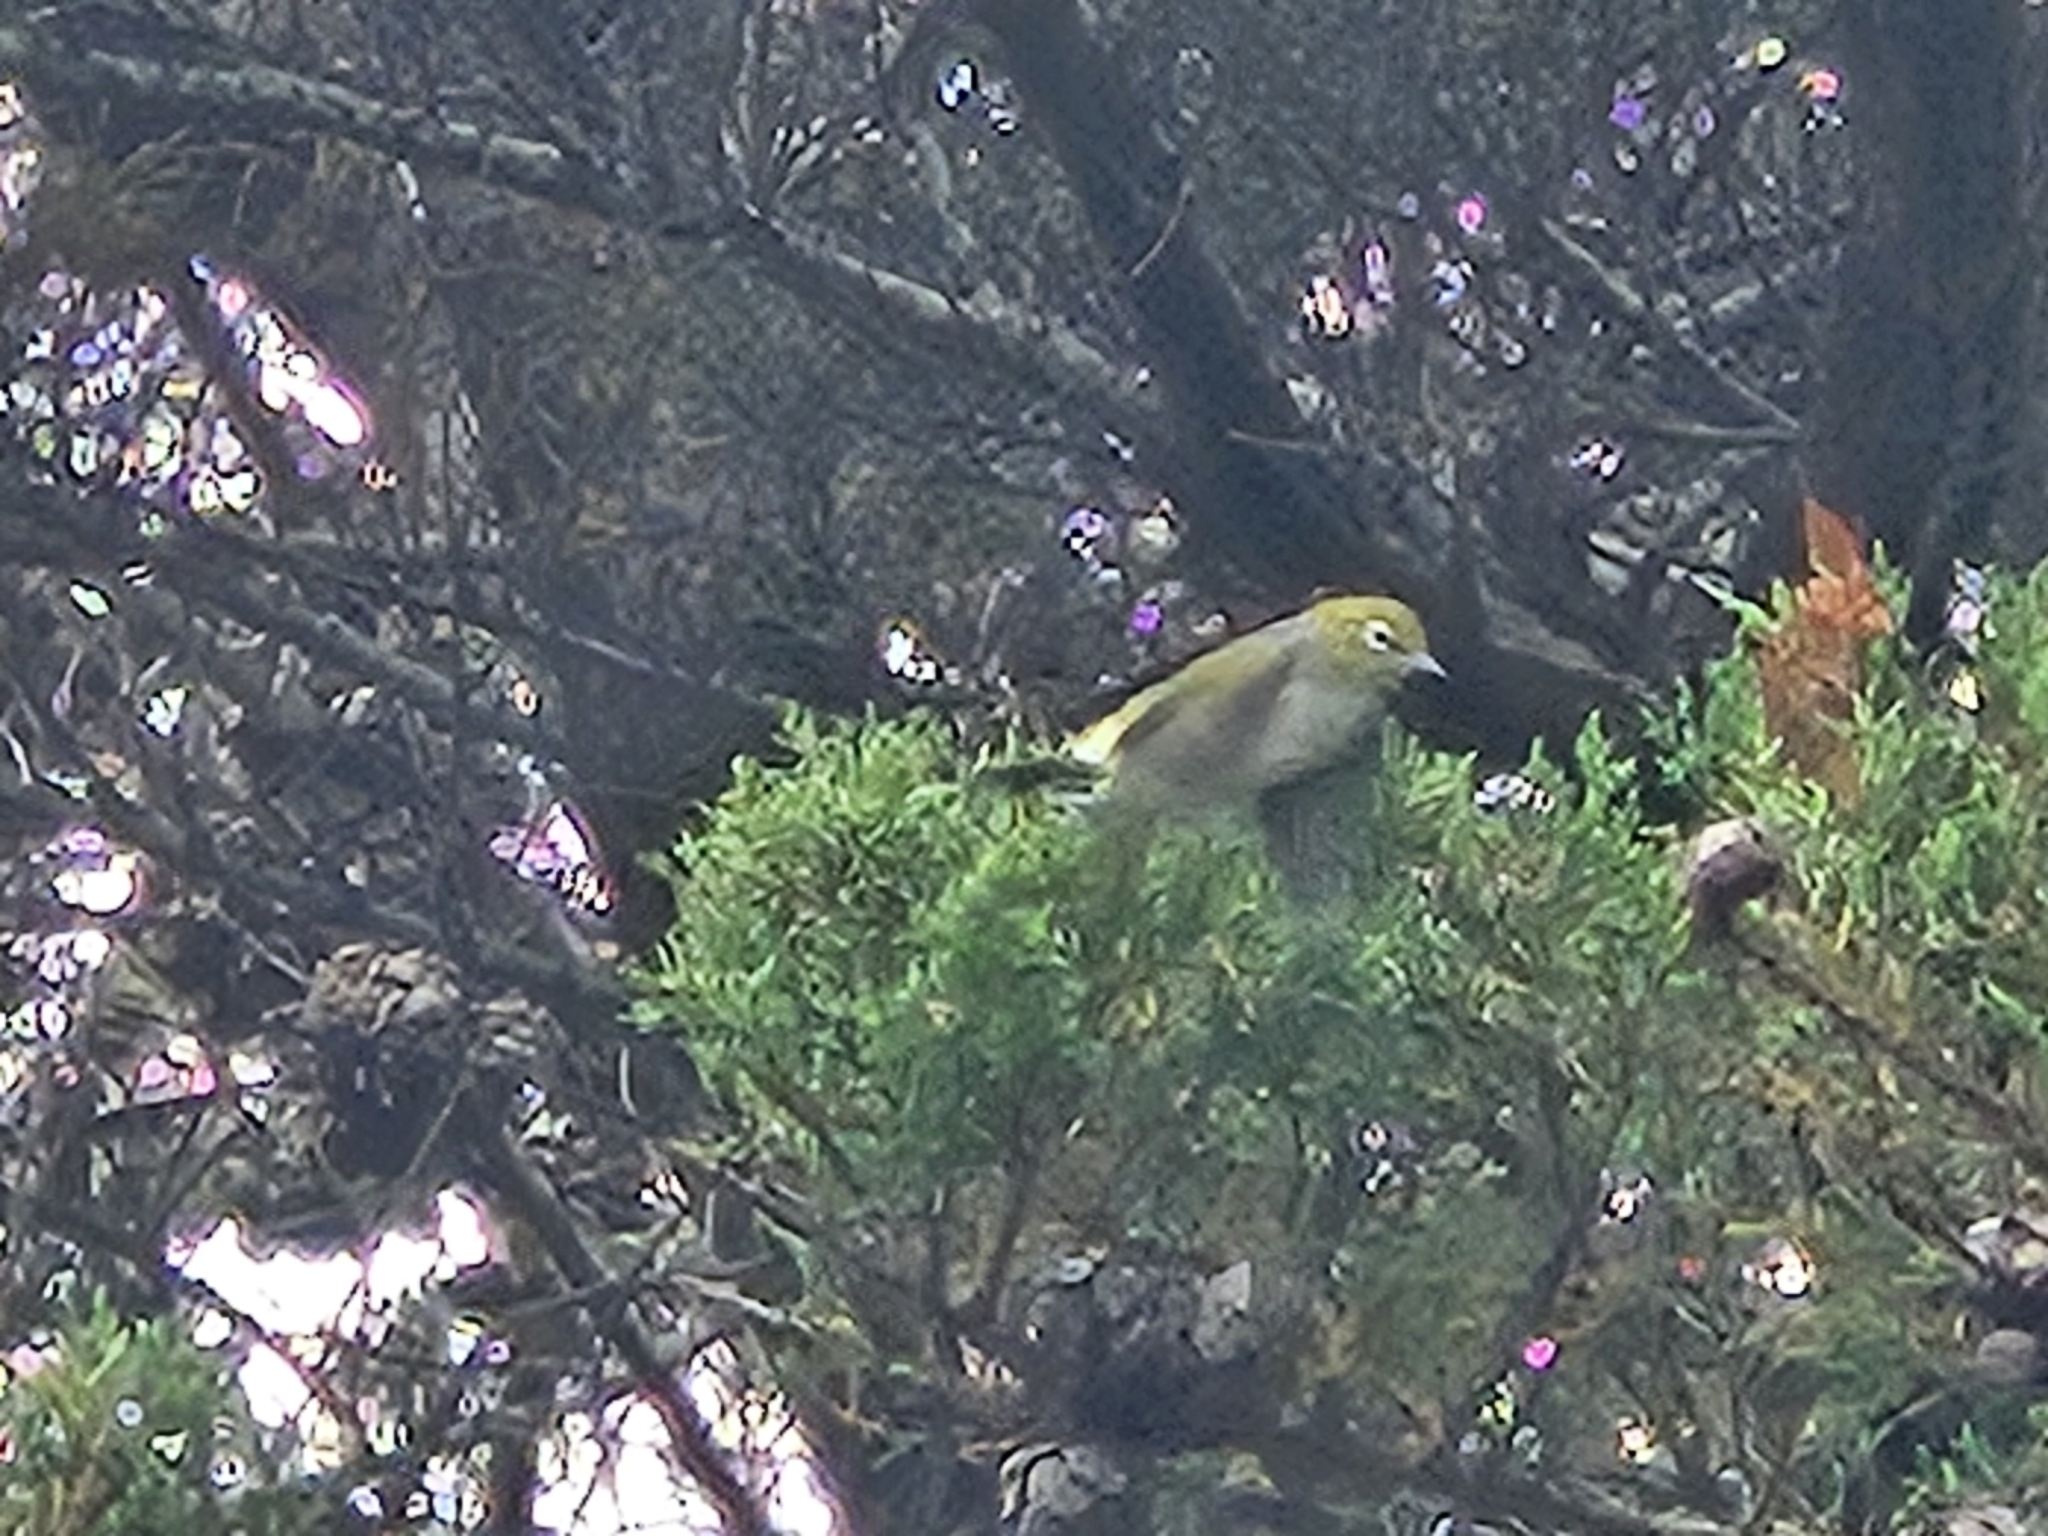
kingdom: Animalia
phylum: Chordata
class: Aves
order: Passeriformes
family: Zosteropidae
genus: Zosterops
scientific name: Zosterops lateralis
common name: Silvereye
